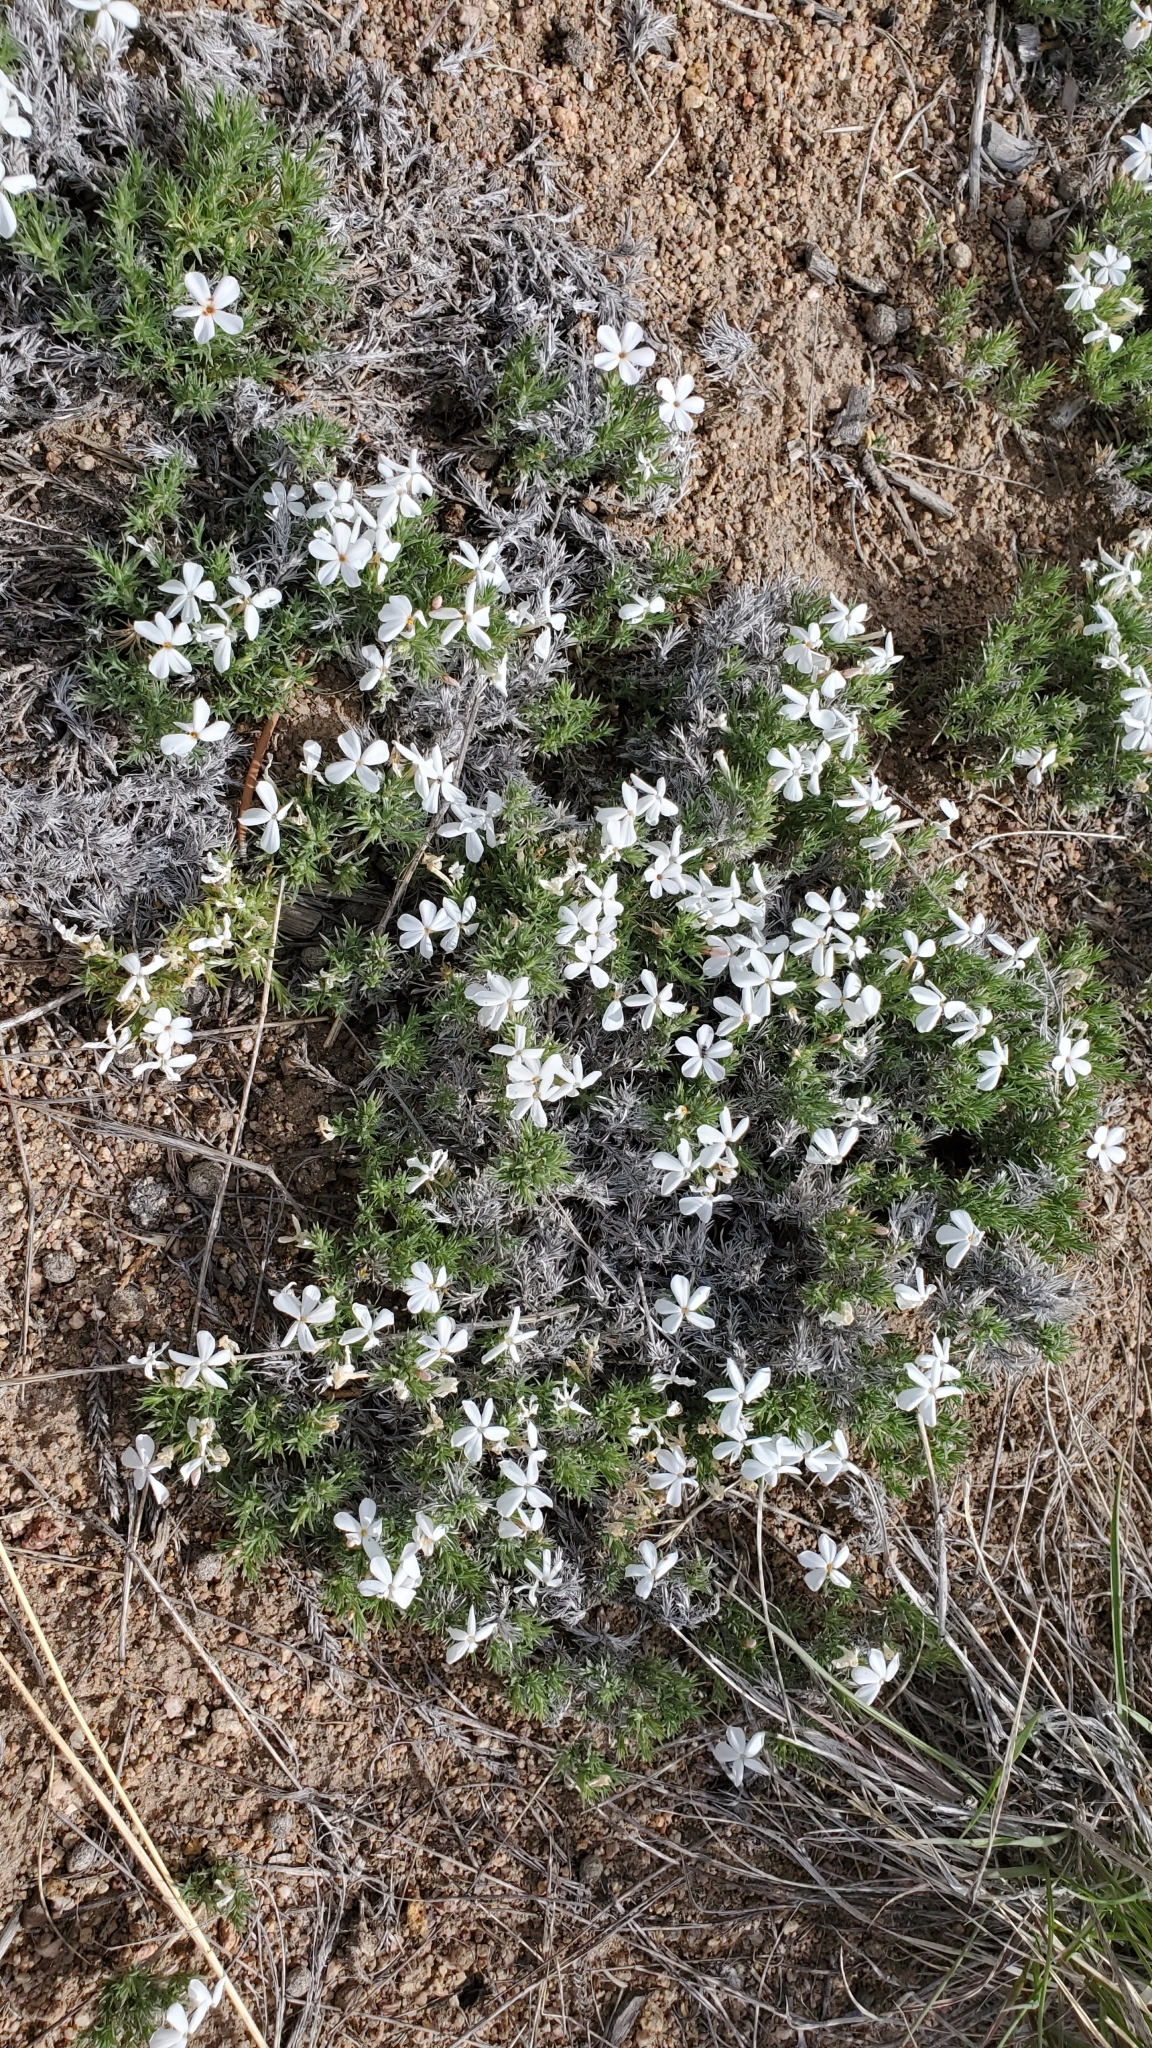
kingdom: Plantae
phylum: Tracheophyta
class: Magnoliopsida
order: Ericales
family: Polemoniaceae
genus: Phlox
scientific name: Phlox hoodii
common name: Moss phlox
